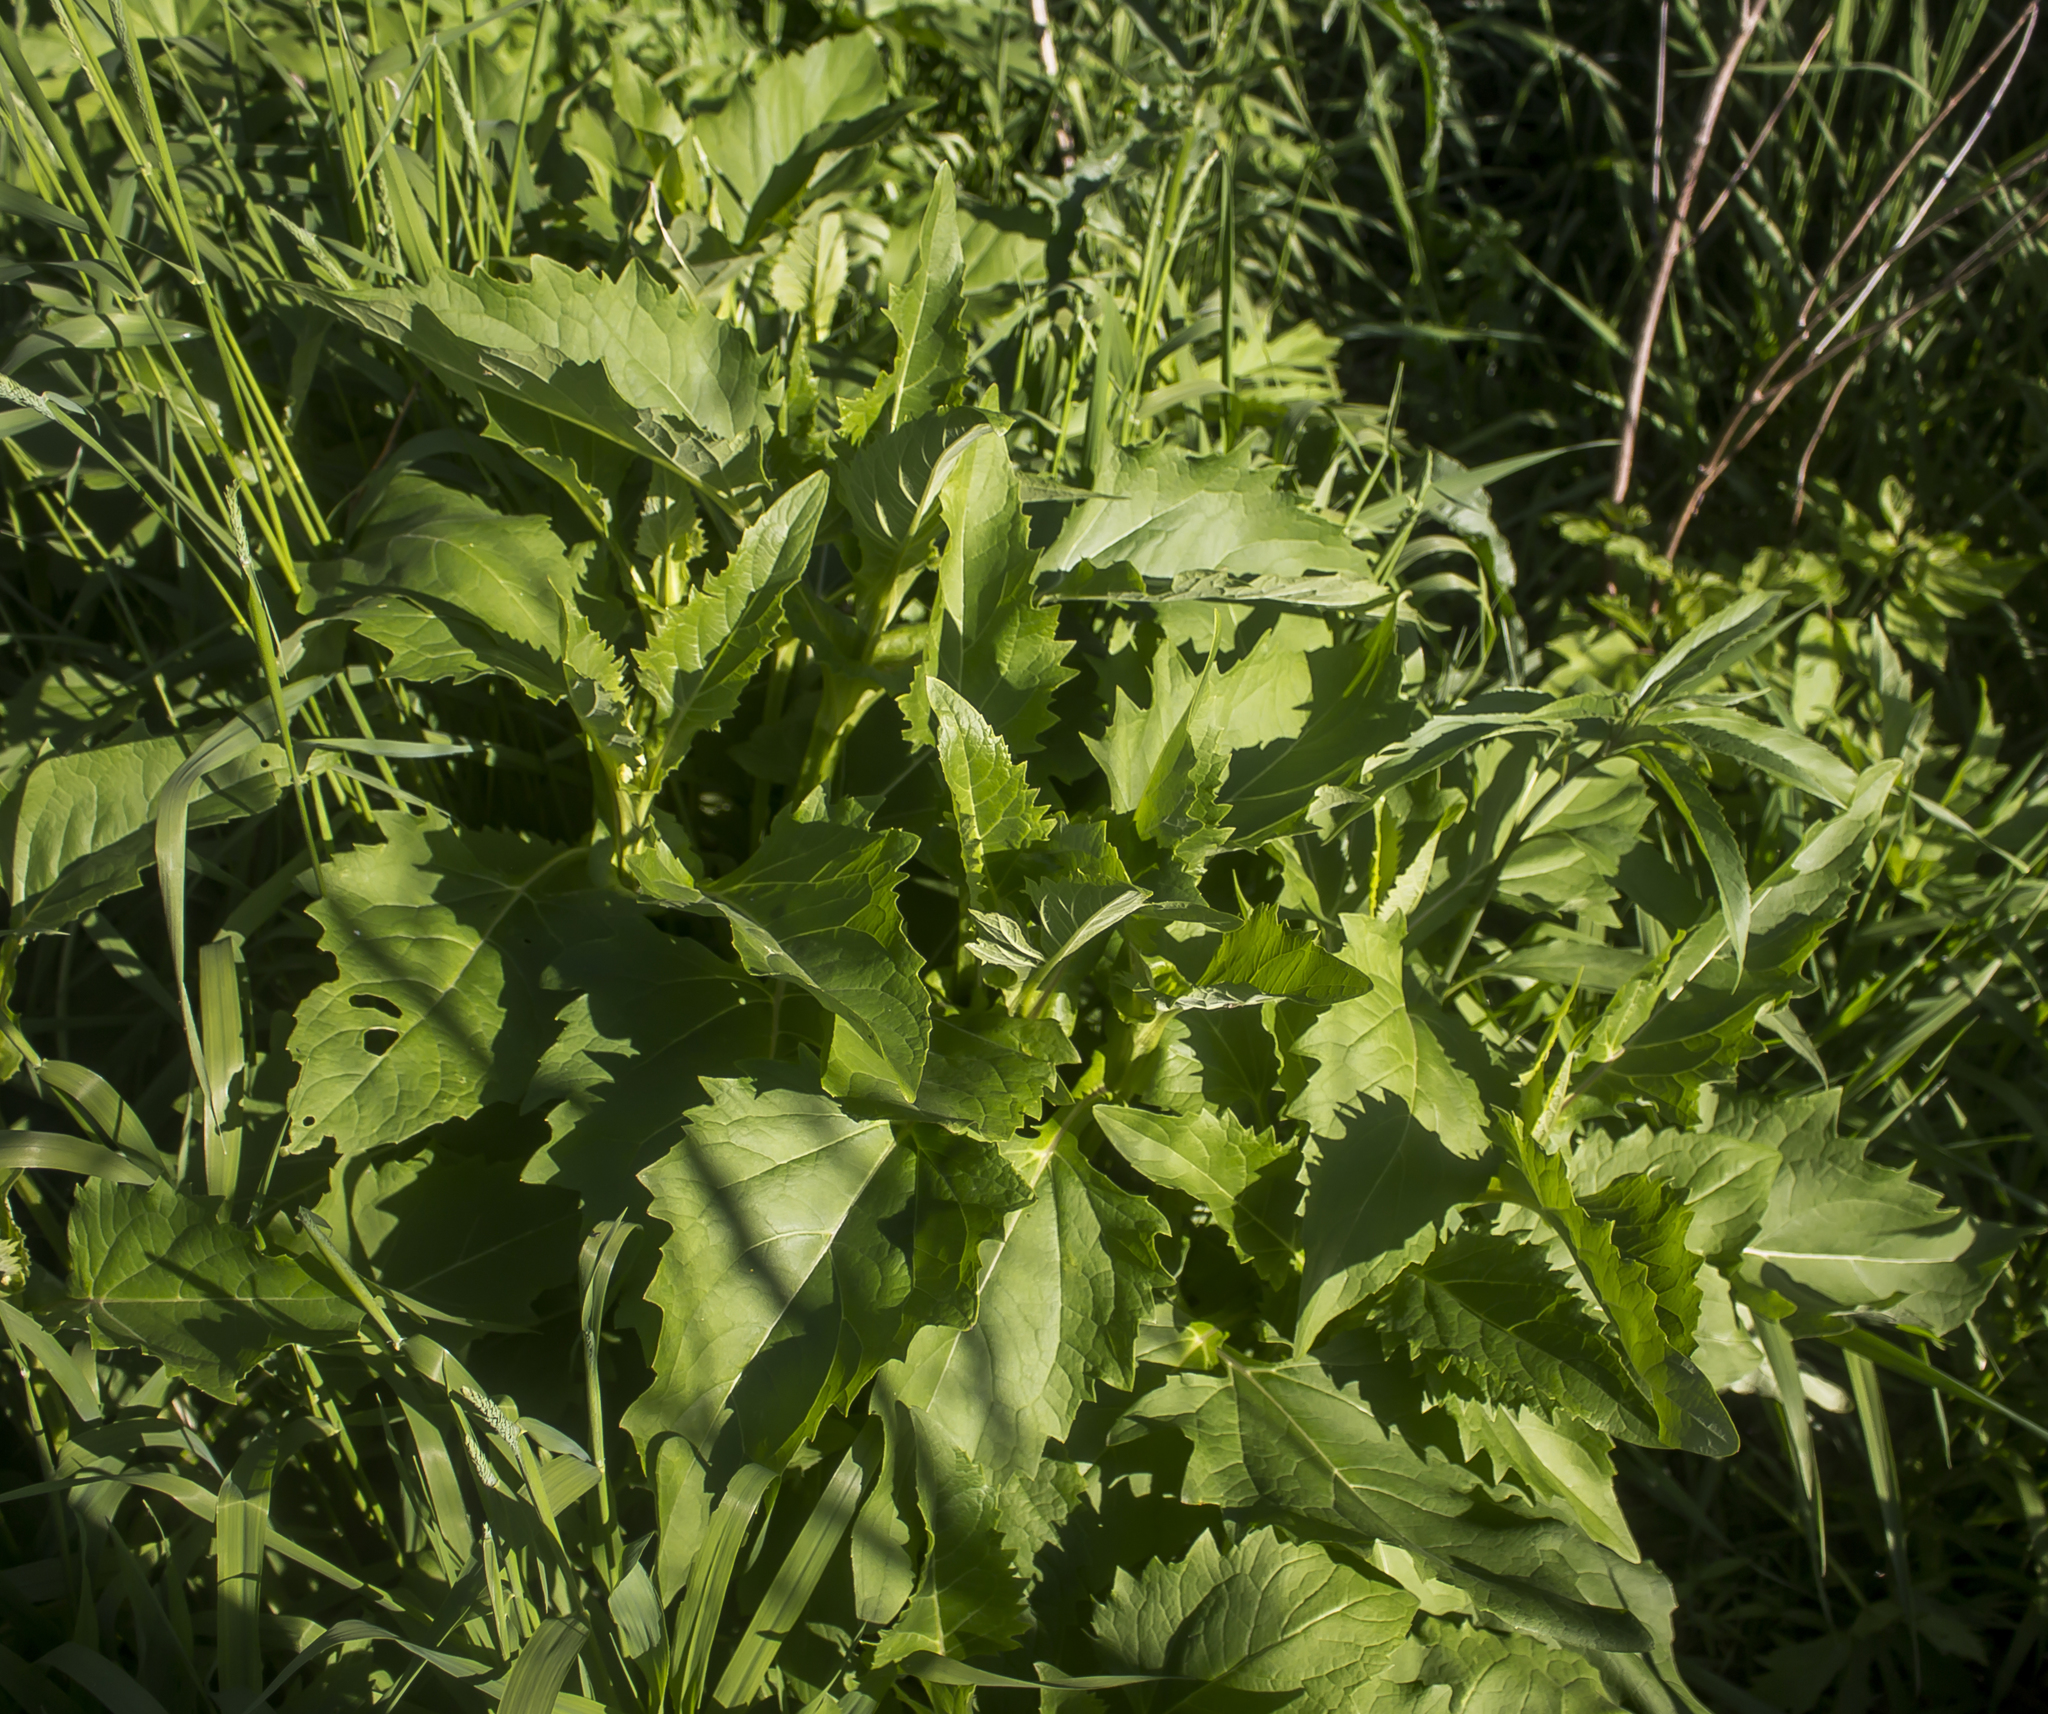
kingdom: Plantae
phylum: Tracheophyta
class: Magnoliopsida
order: Asterales
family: Asteraceae
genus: Silphium
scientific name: Silphium perfoliatum
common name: Cup-plant
